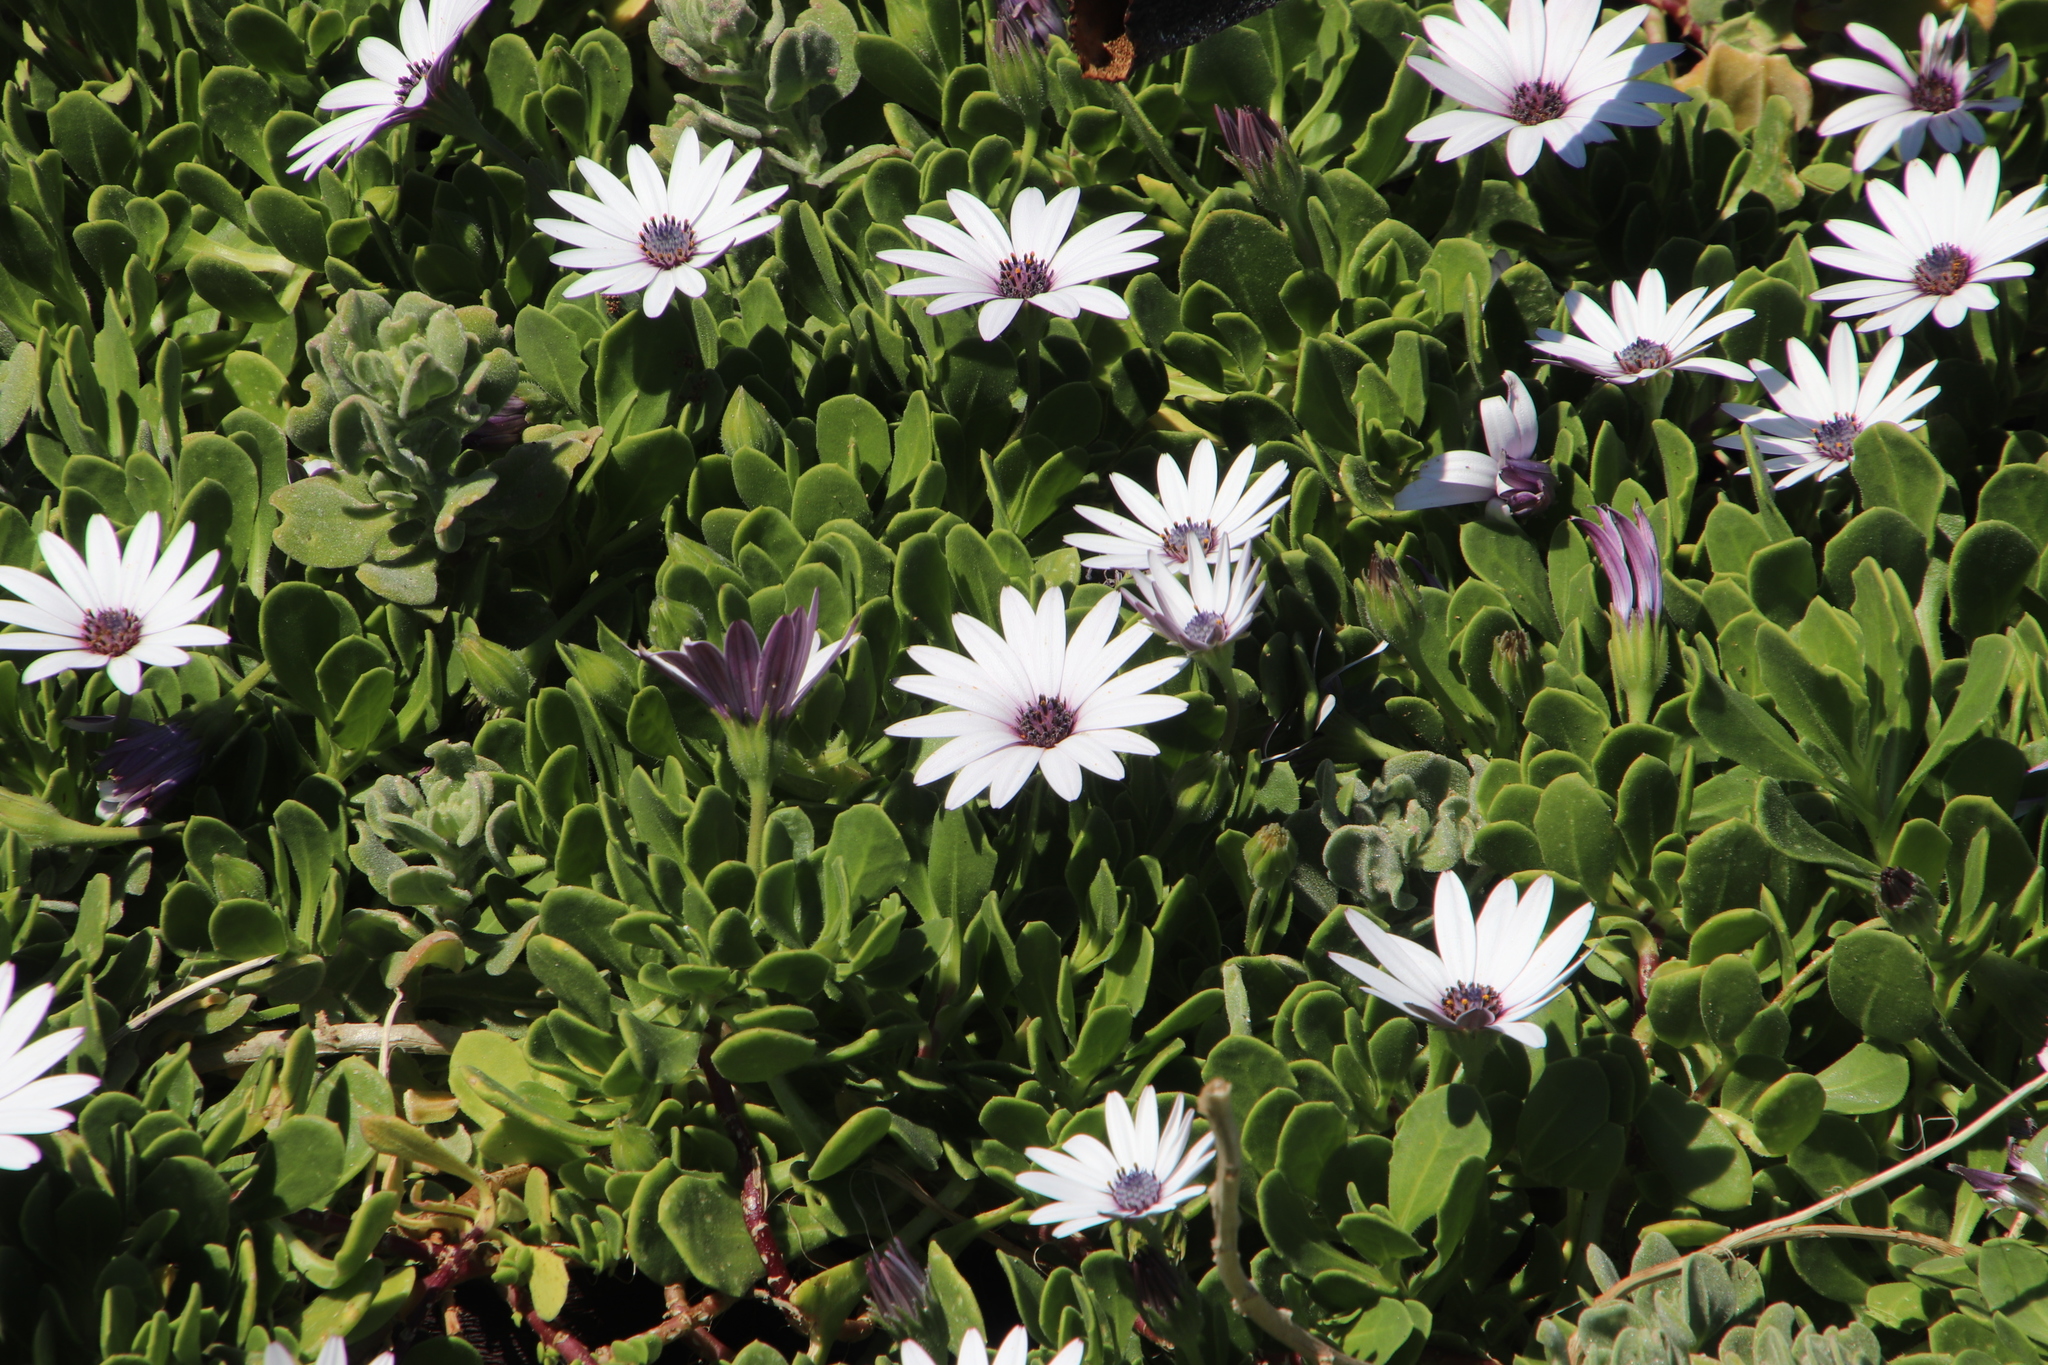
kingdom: Plantae
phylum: Tracheophyta
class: Magnoliopsida
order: Asterales
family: Asteraceae
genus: Dimorphotheca
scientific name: Dimorphotheca fruticosa
